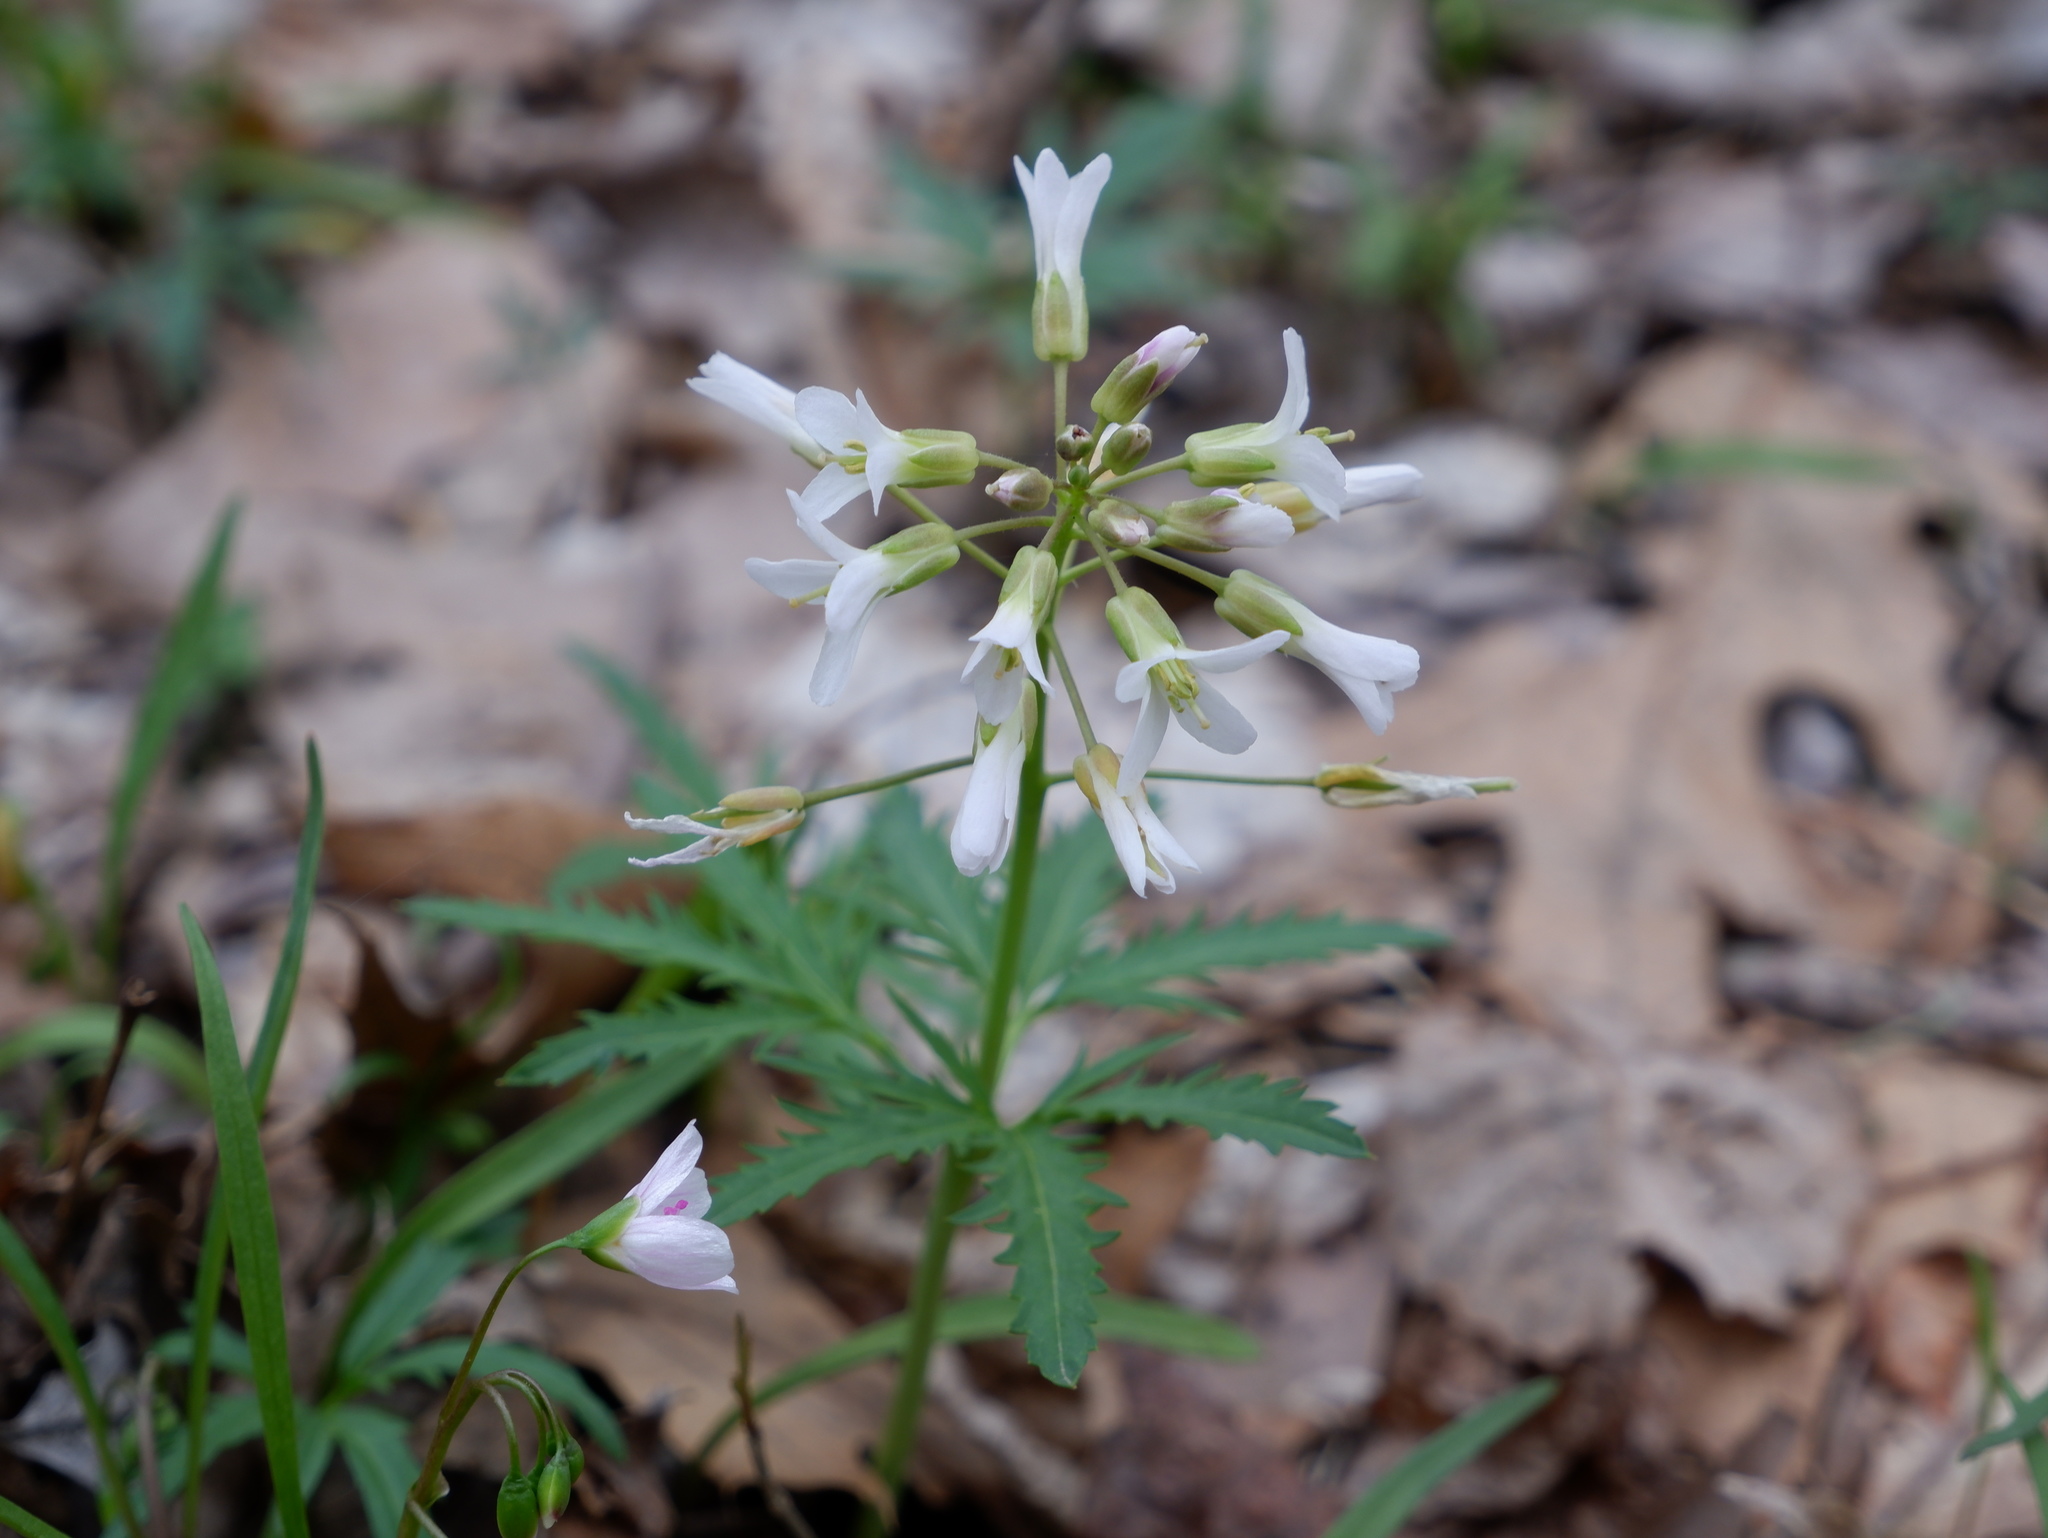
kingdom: Plantae
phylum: Tracheophyta
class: Magnoliopsida
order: Brassicales
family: Brassicaceae
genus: Cardamine
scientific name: Cardamine concatenata
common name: Cut-leaf toothcup
